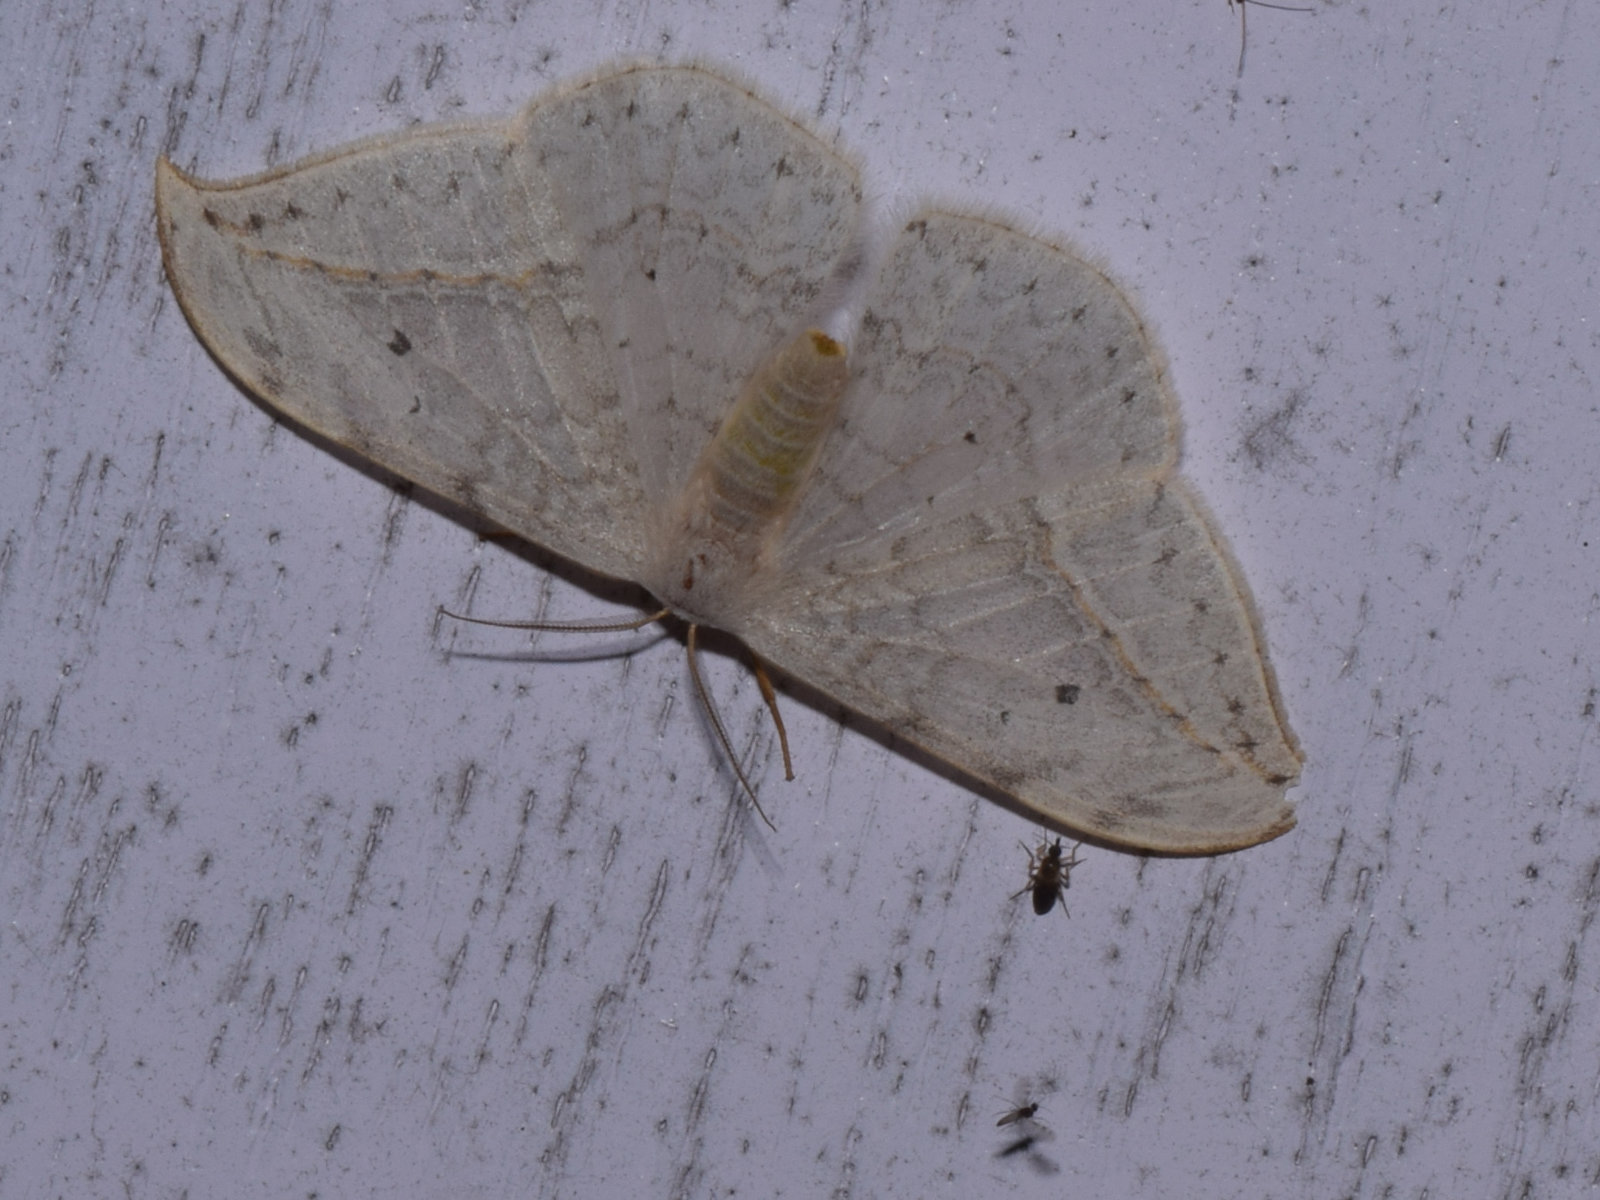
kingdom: Animalia
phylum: Arthropoda
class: Insecta
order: Lepidoptera
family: Drepanidae
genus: Drepana
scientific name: Drepana pallida
